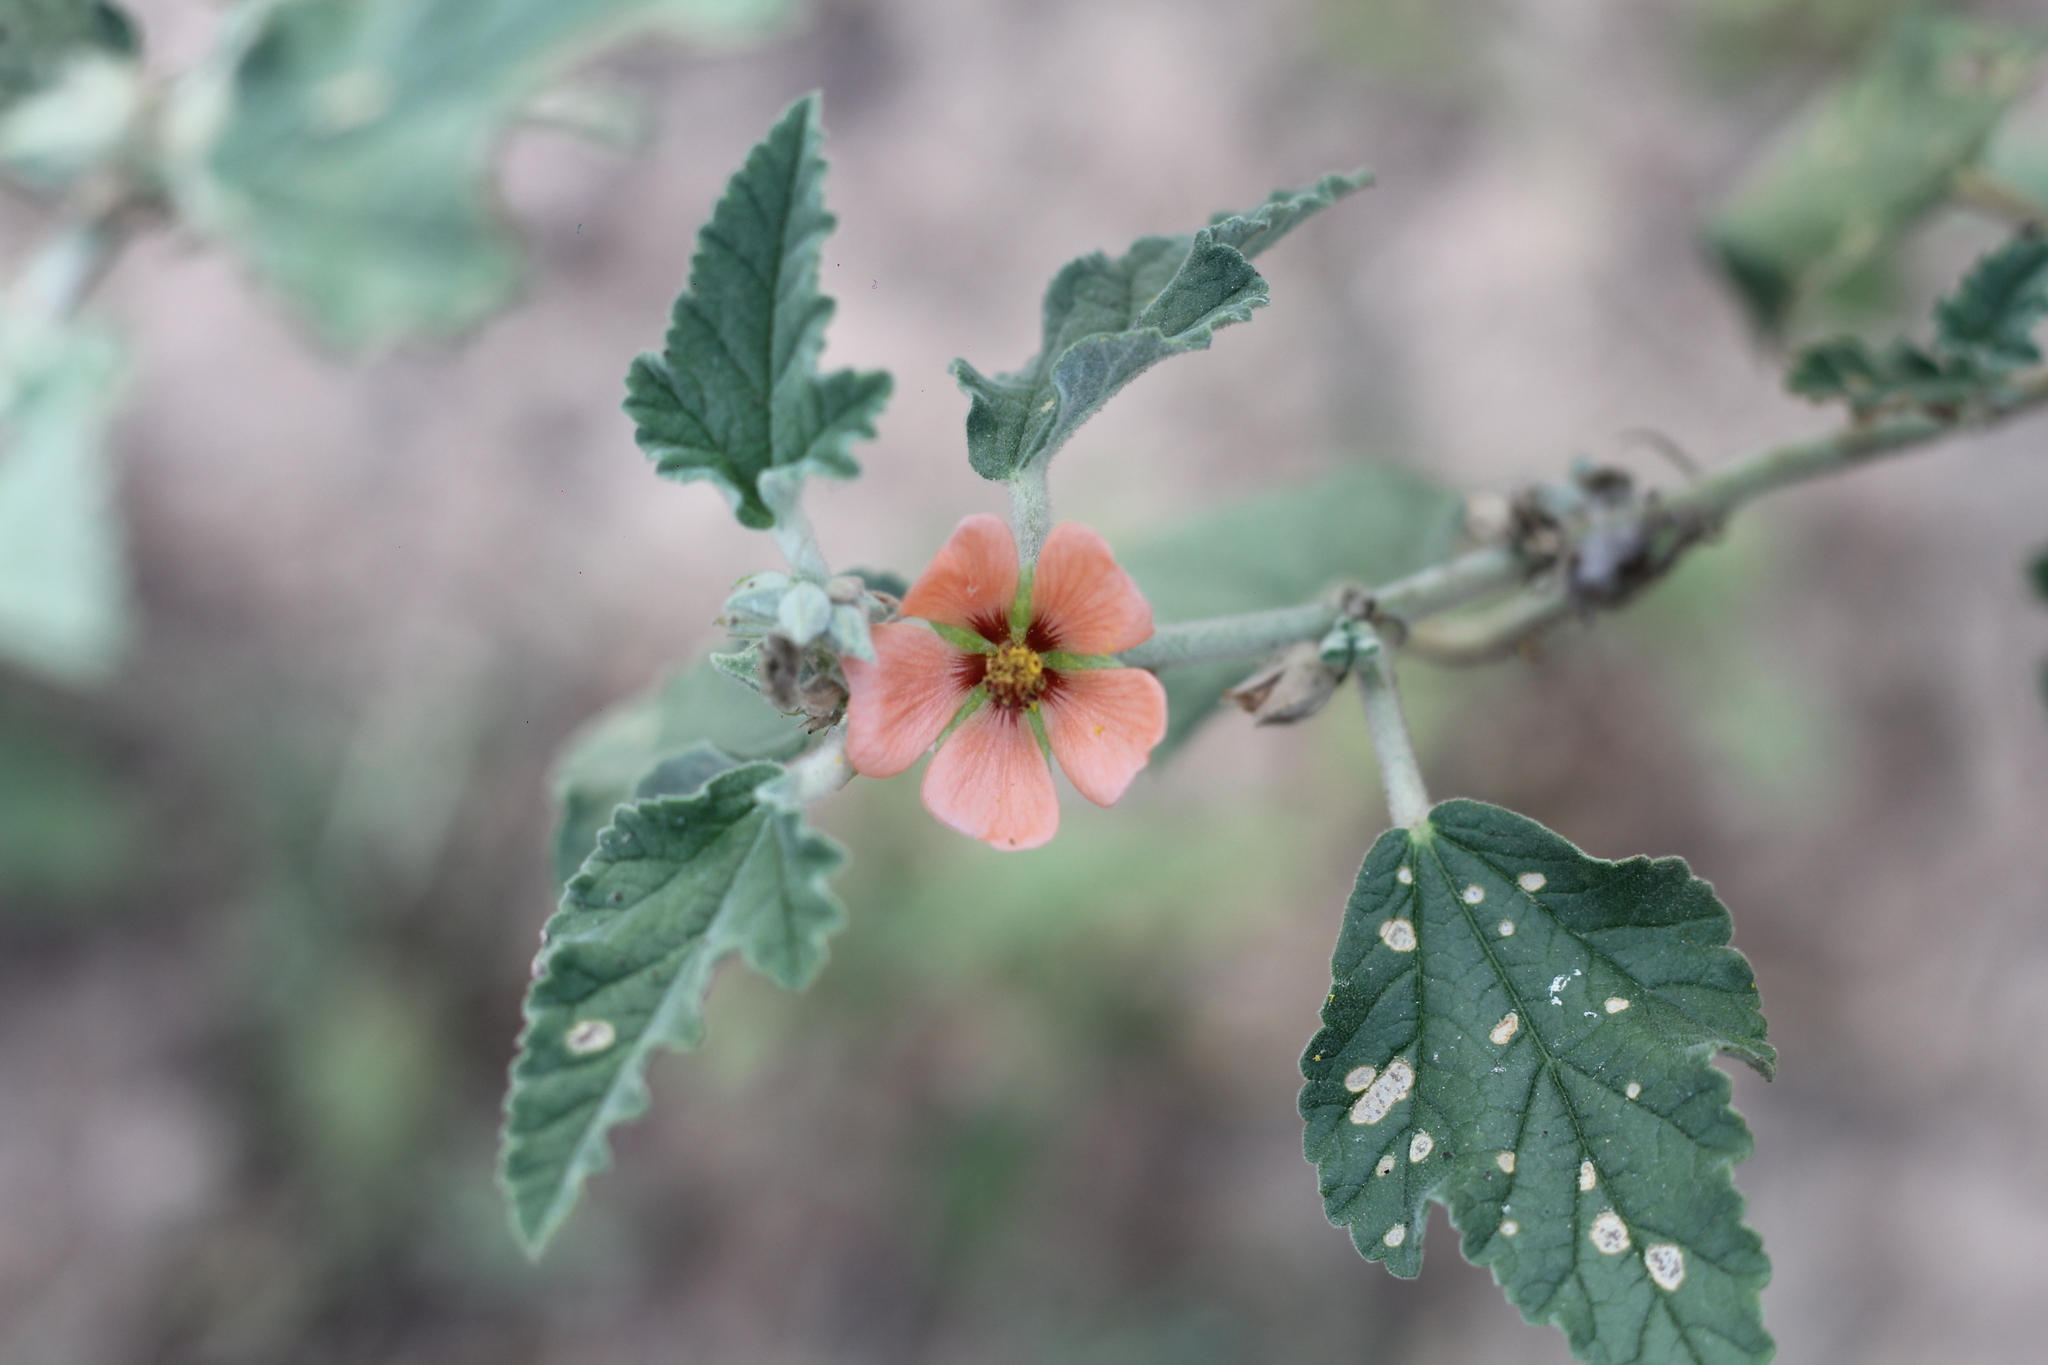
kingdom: Plantae
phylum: Tracheophyta
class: Magnoliopsida
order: Malvales
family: Malvaceae
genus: Sphaeralcea
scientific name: Sphaeralcea bonariensis
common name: Latin globemallow
